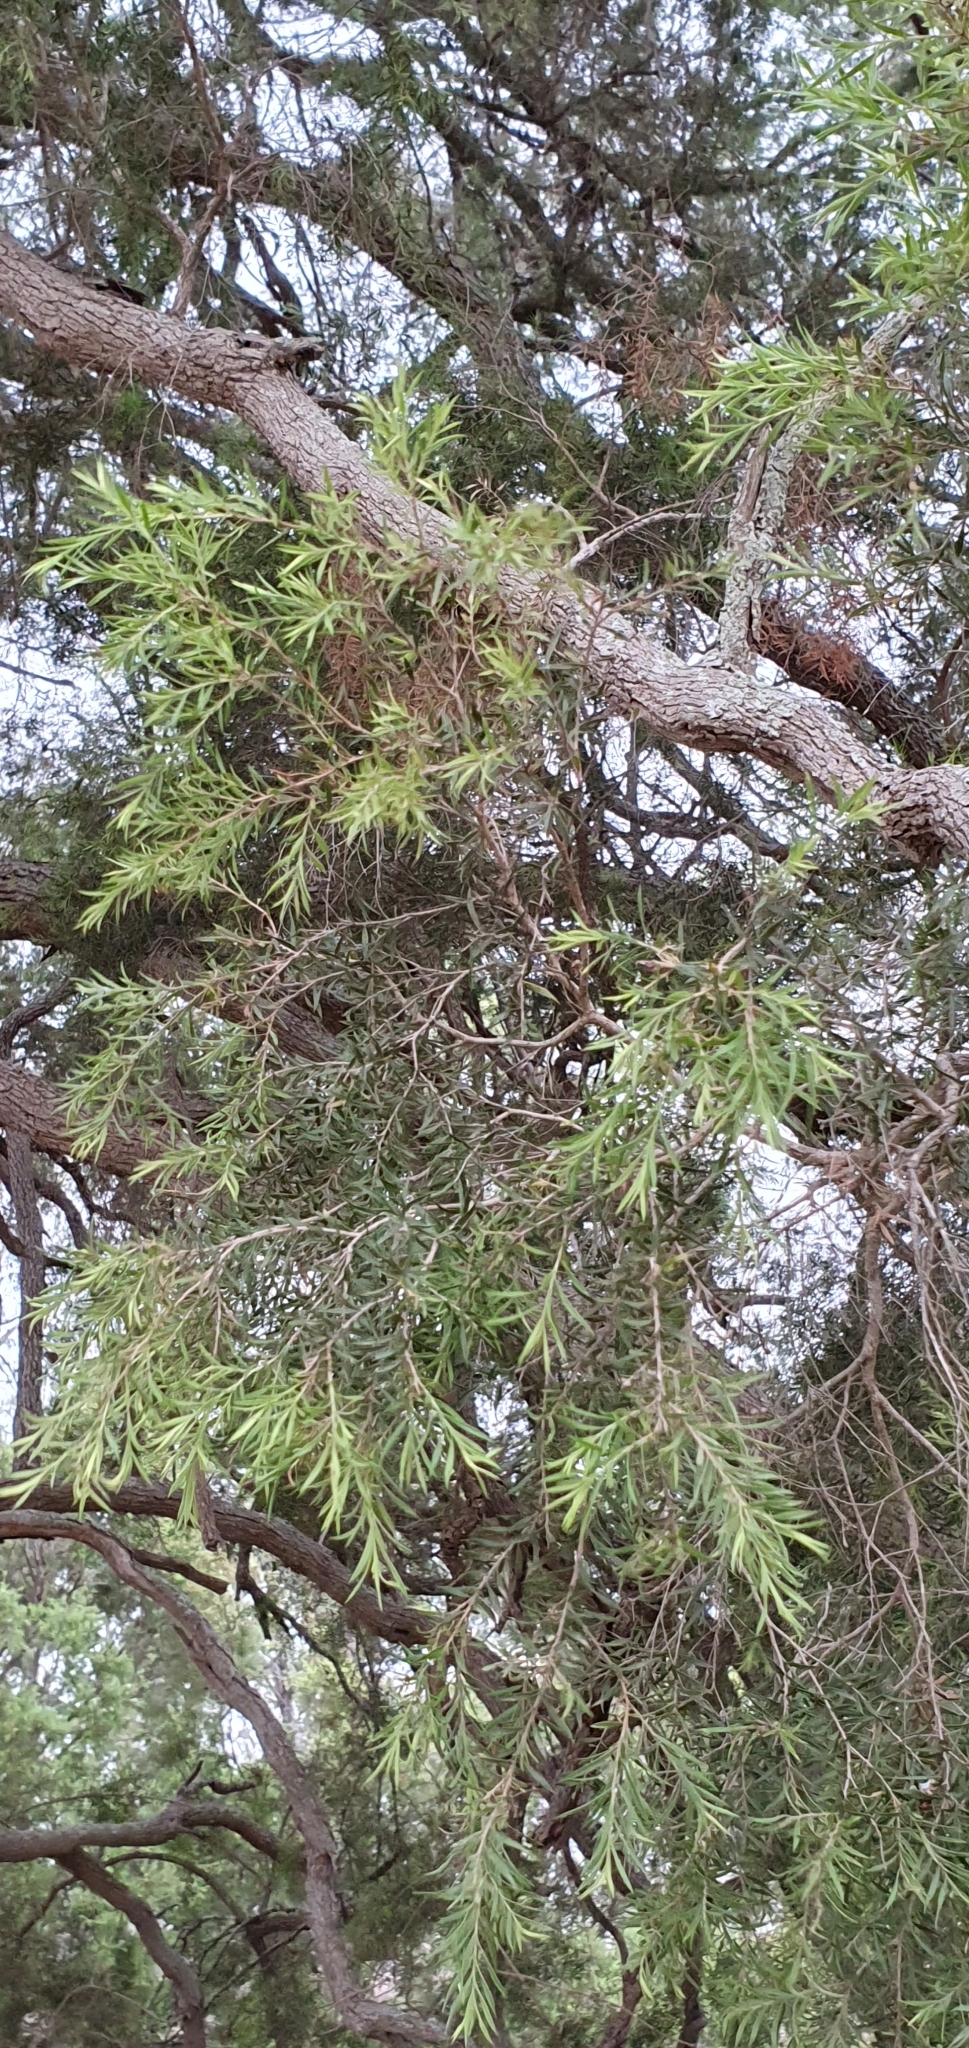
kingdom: Plantae
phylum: Tracheophyta
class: Magnoliopsida
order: Myrtales
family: Myrtaceae
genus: Melaleuca
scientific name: Melaleuca bracteata
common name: Black tea-tree
